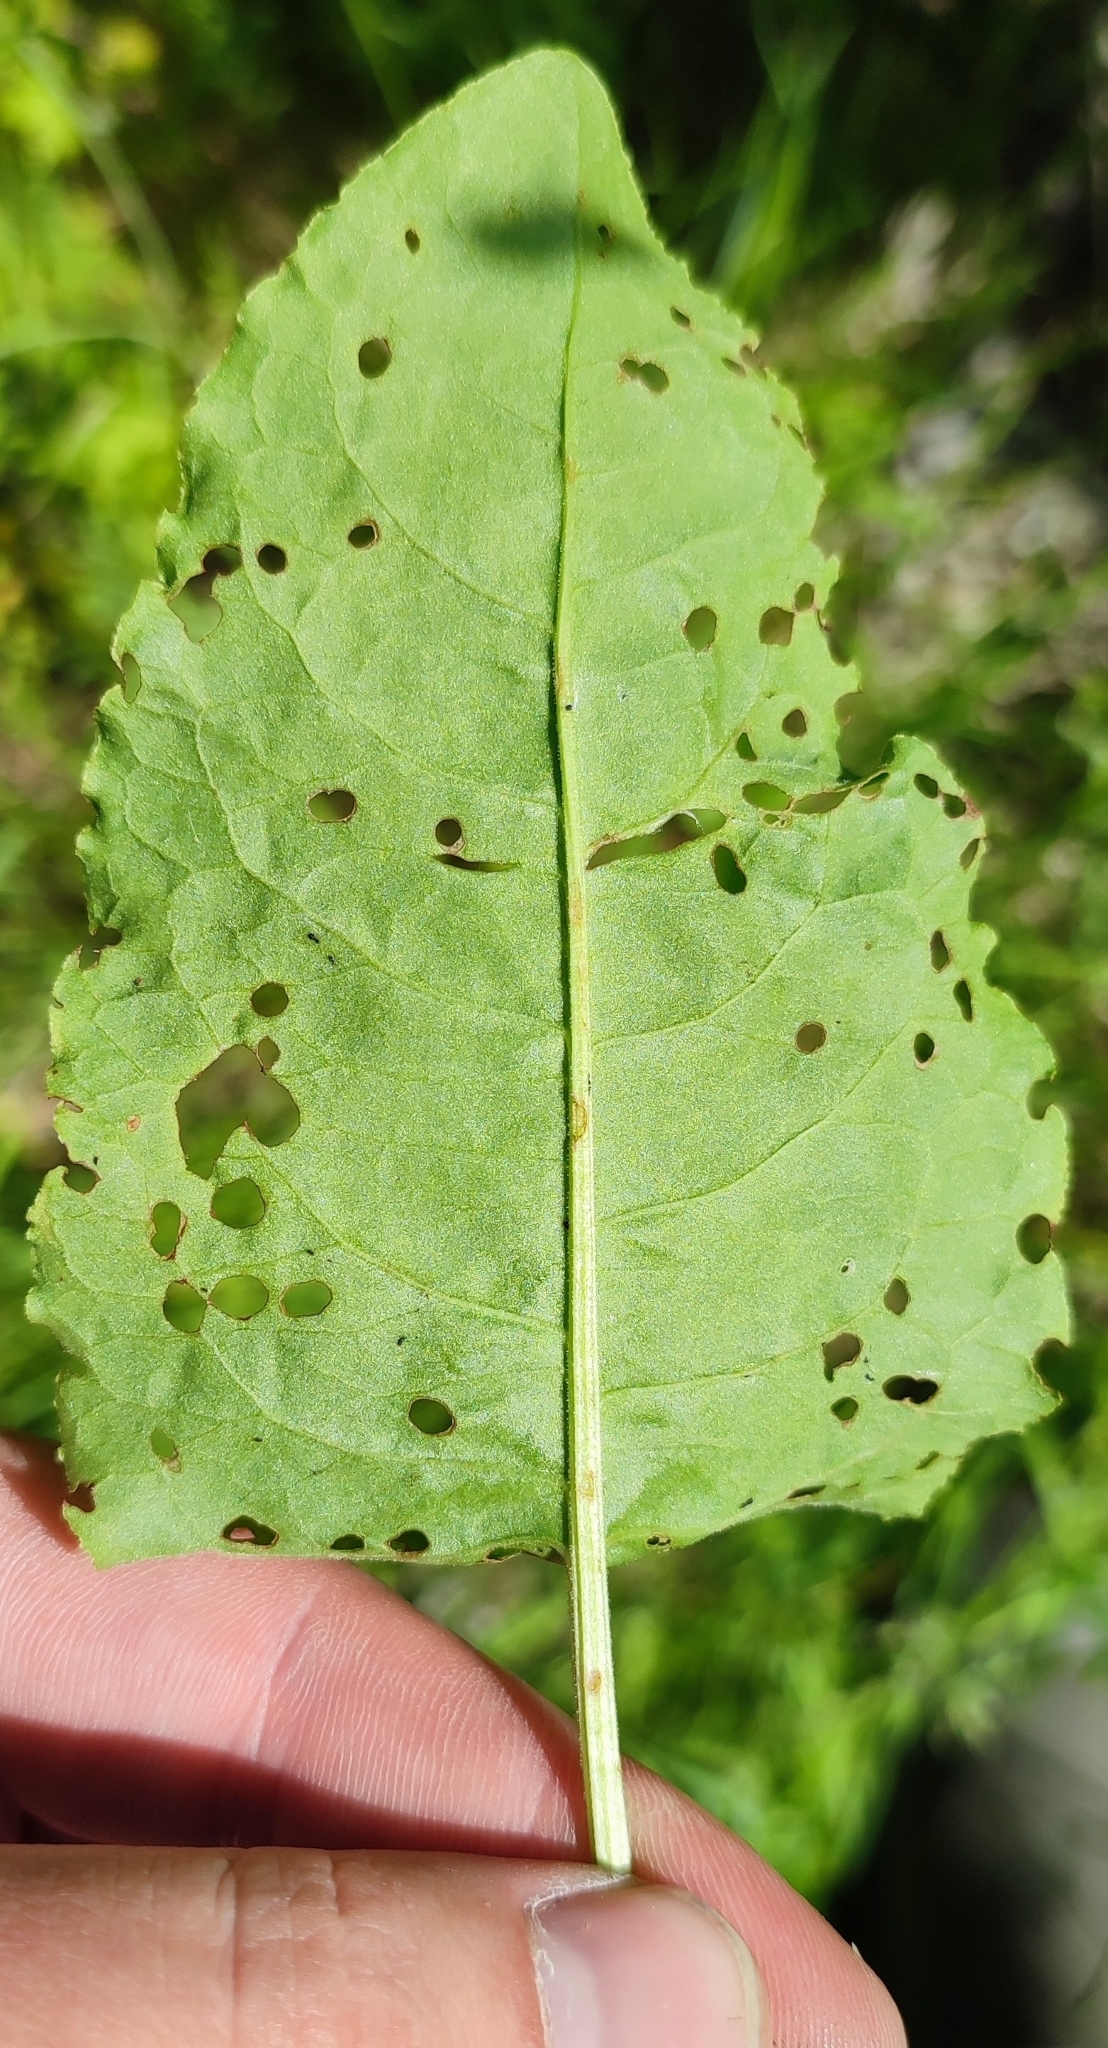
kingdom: Plantae
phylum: Tracheophyta
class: Magnoliopsida
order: Caryophyllales
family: Polygonaceae
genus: Rumex
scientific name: Rumex confertus
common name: Russian dock
